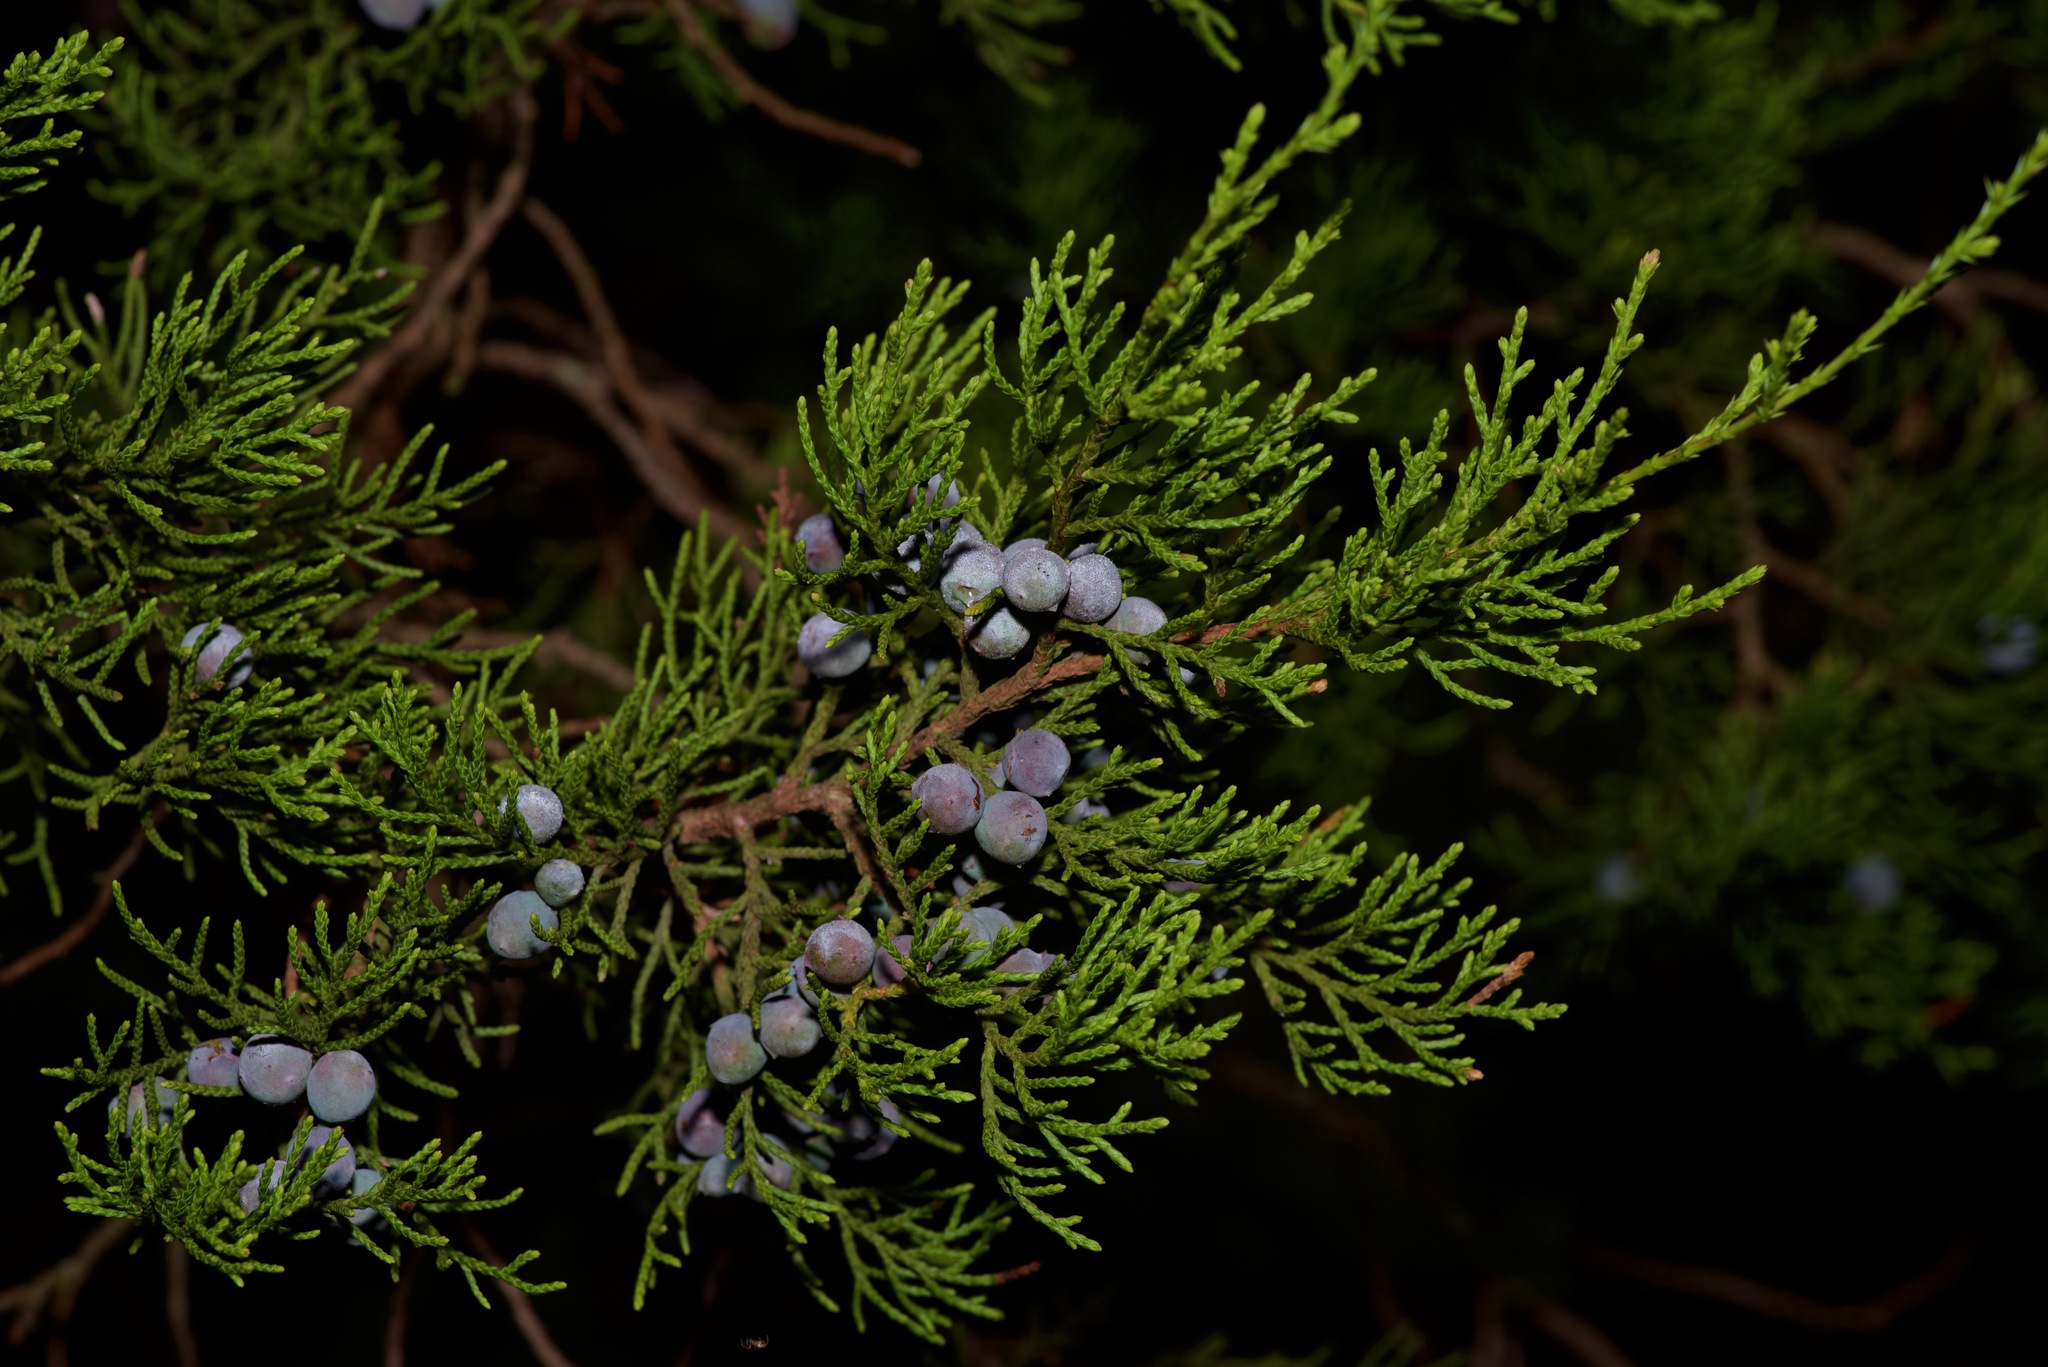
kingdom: Plantae
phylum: Tracheophyta
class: Pinopsida
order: Pinales
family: Cupressaceae
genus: Juniperus
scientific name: Juniperus ashei
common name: Mexican juniper
